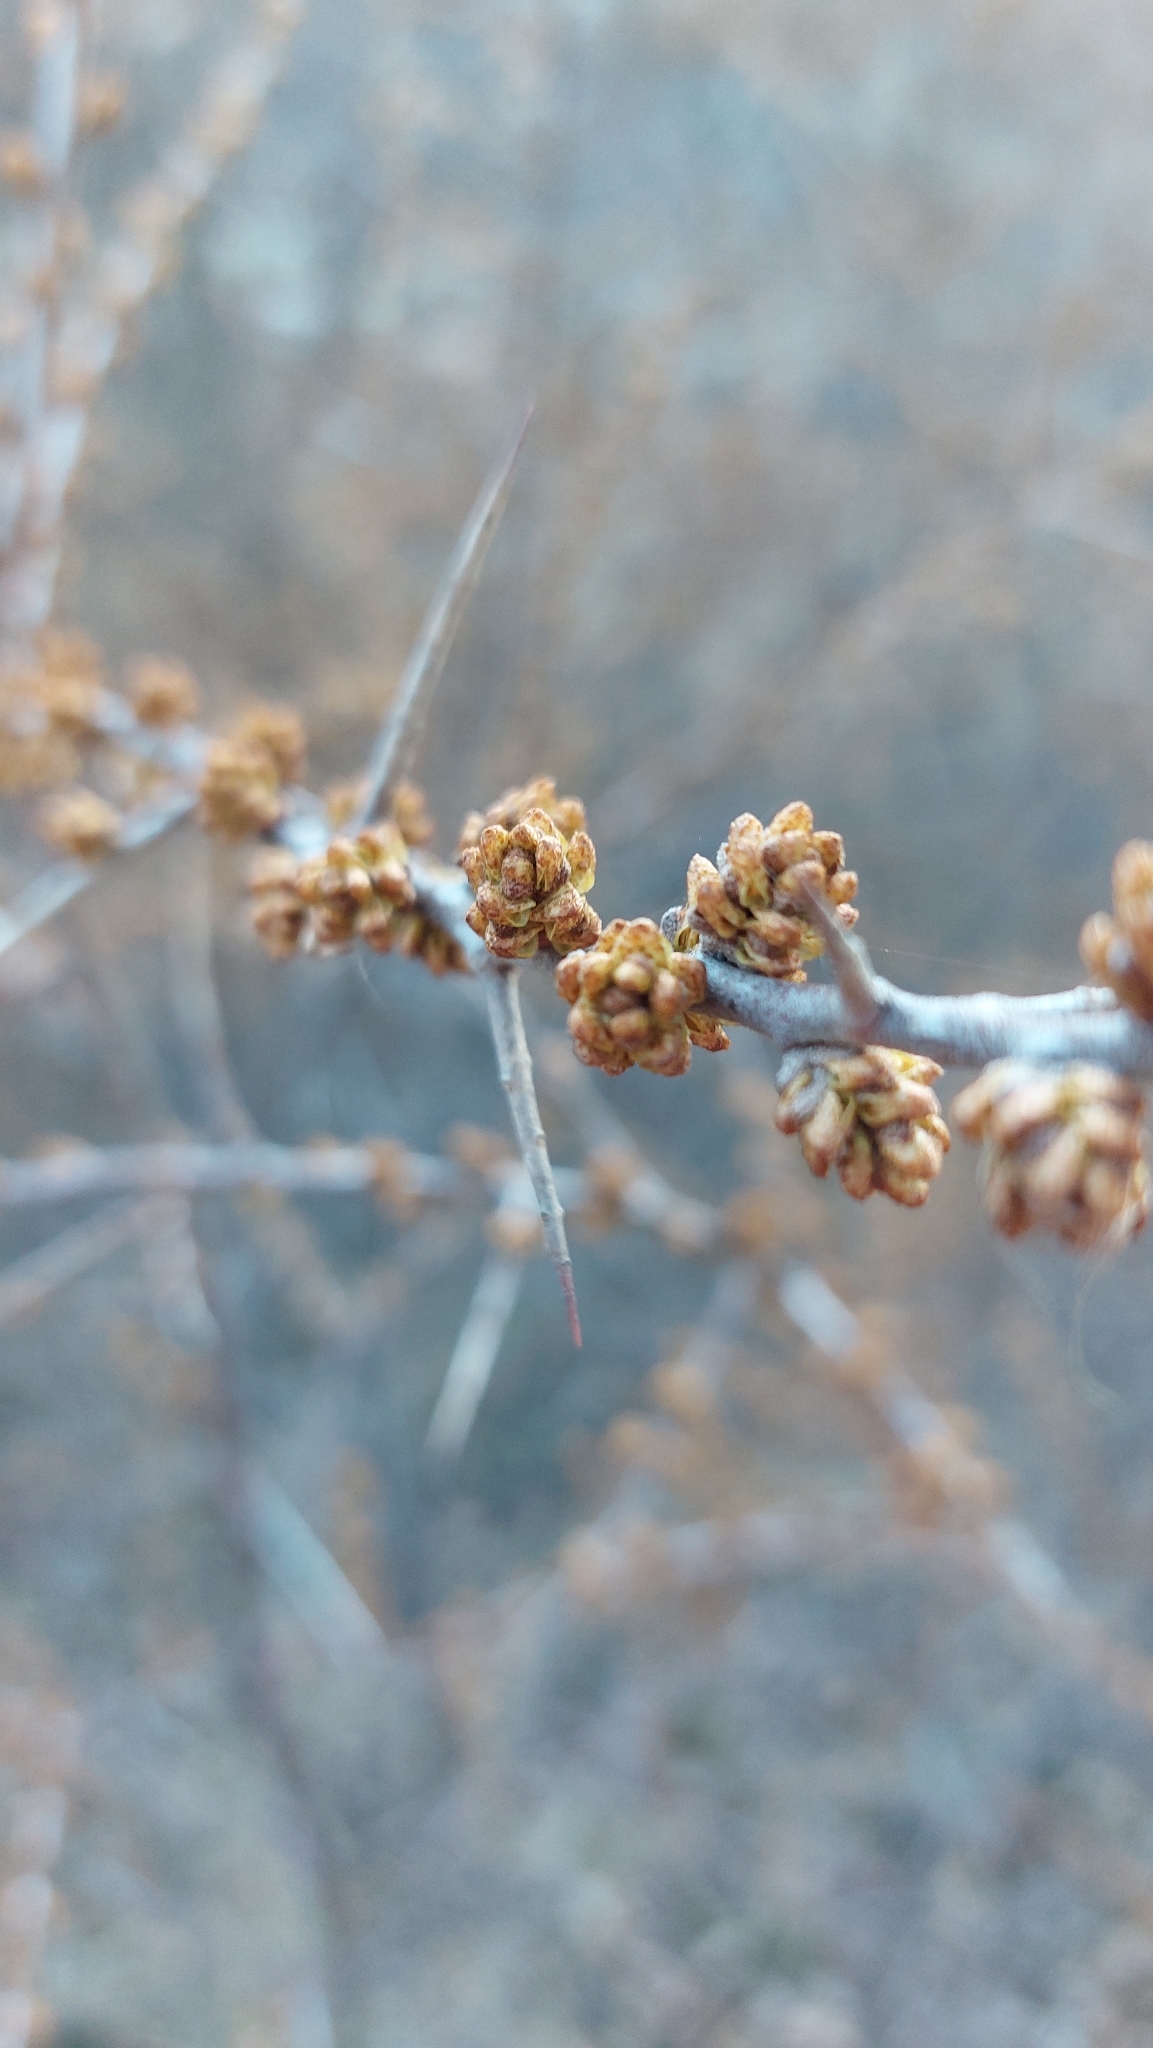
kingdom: Plantae
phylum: Tracheophyta
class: Magnoliopsida
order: Rosales
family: Elaeagnaceae
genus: Hippophae
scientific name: Hippophae rhamnoides
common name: Sea-buckthorn
